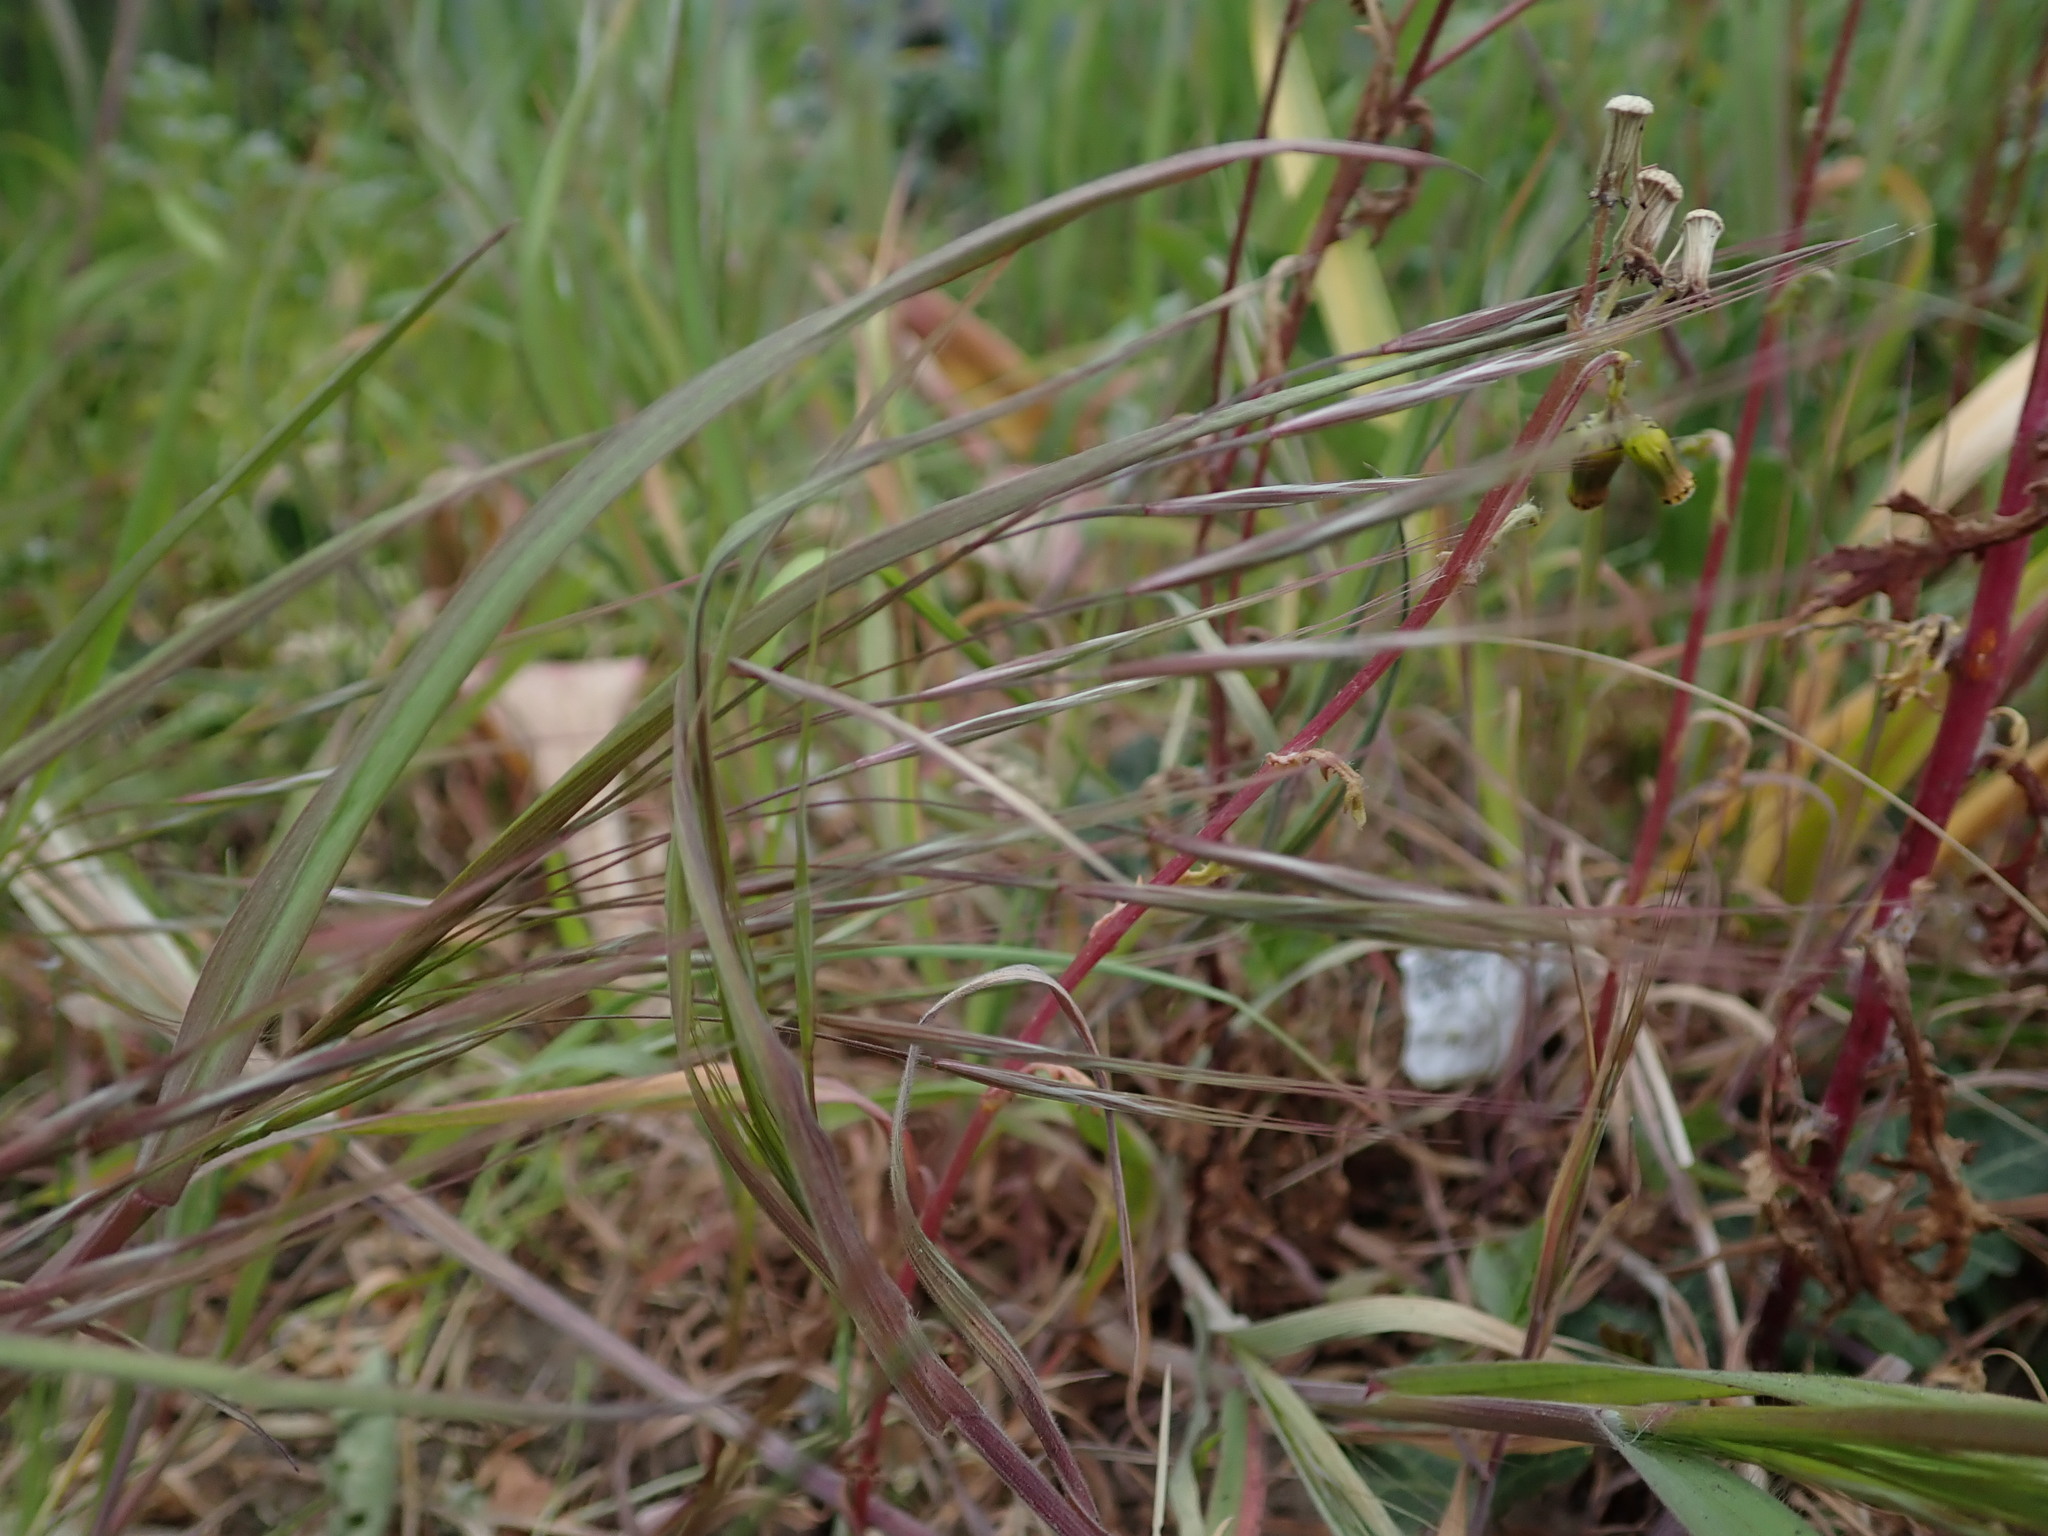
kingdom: Plantae
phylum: Tracheophyta
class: Liliopsida
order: Poales
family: Poaceae
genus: Bromus
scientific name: Bromus sterilis
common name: Poverty brome
